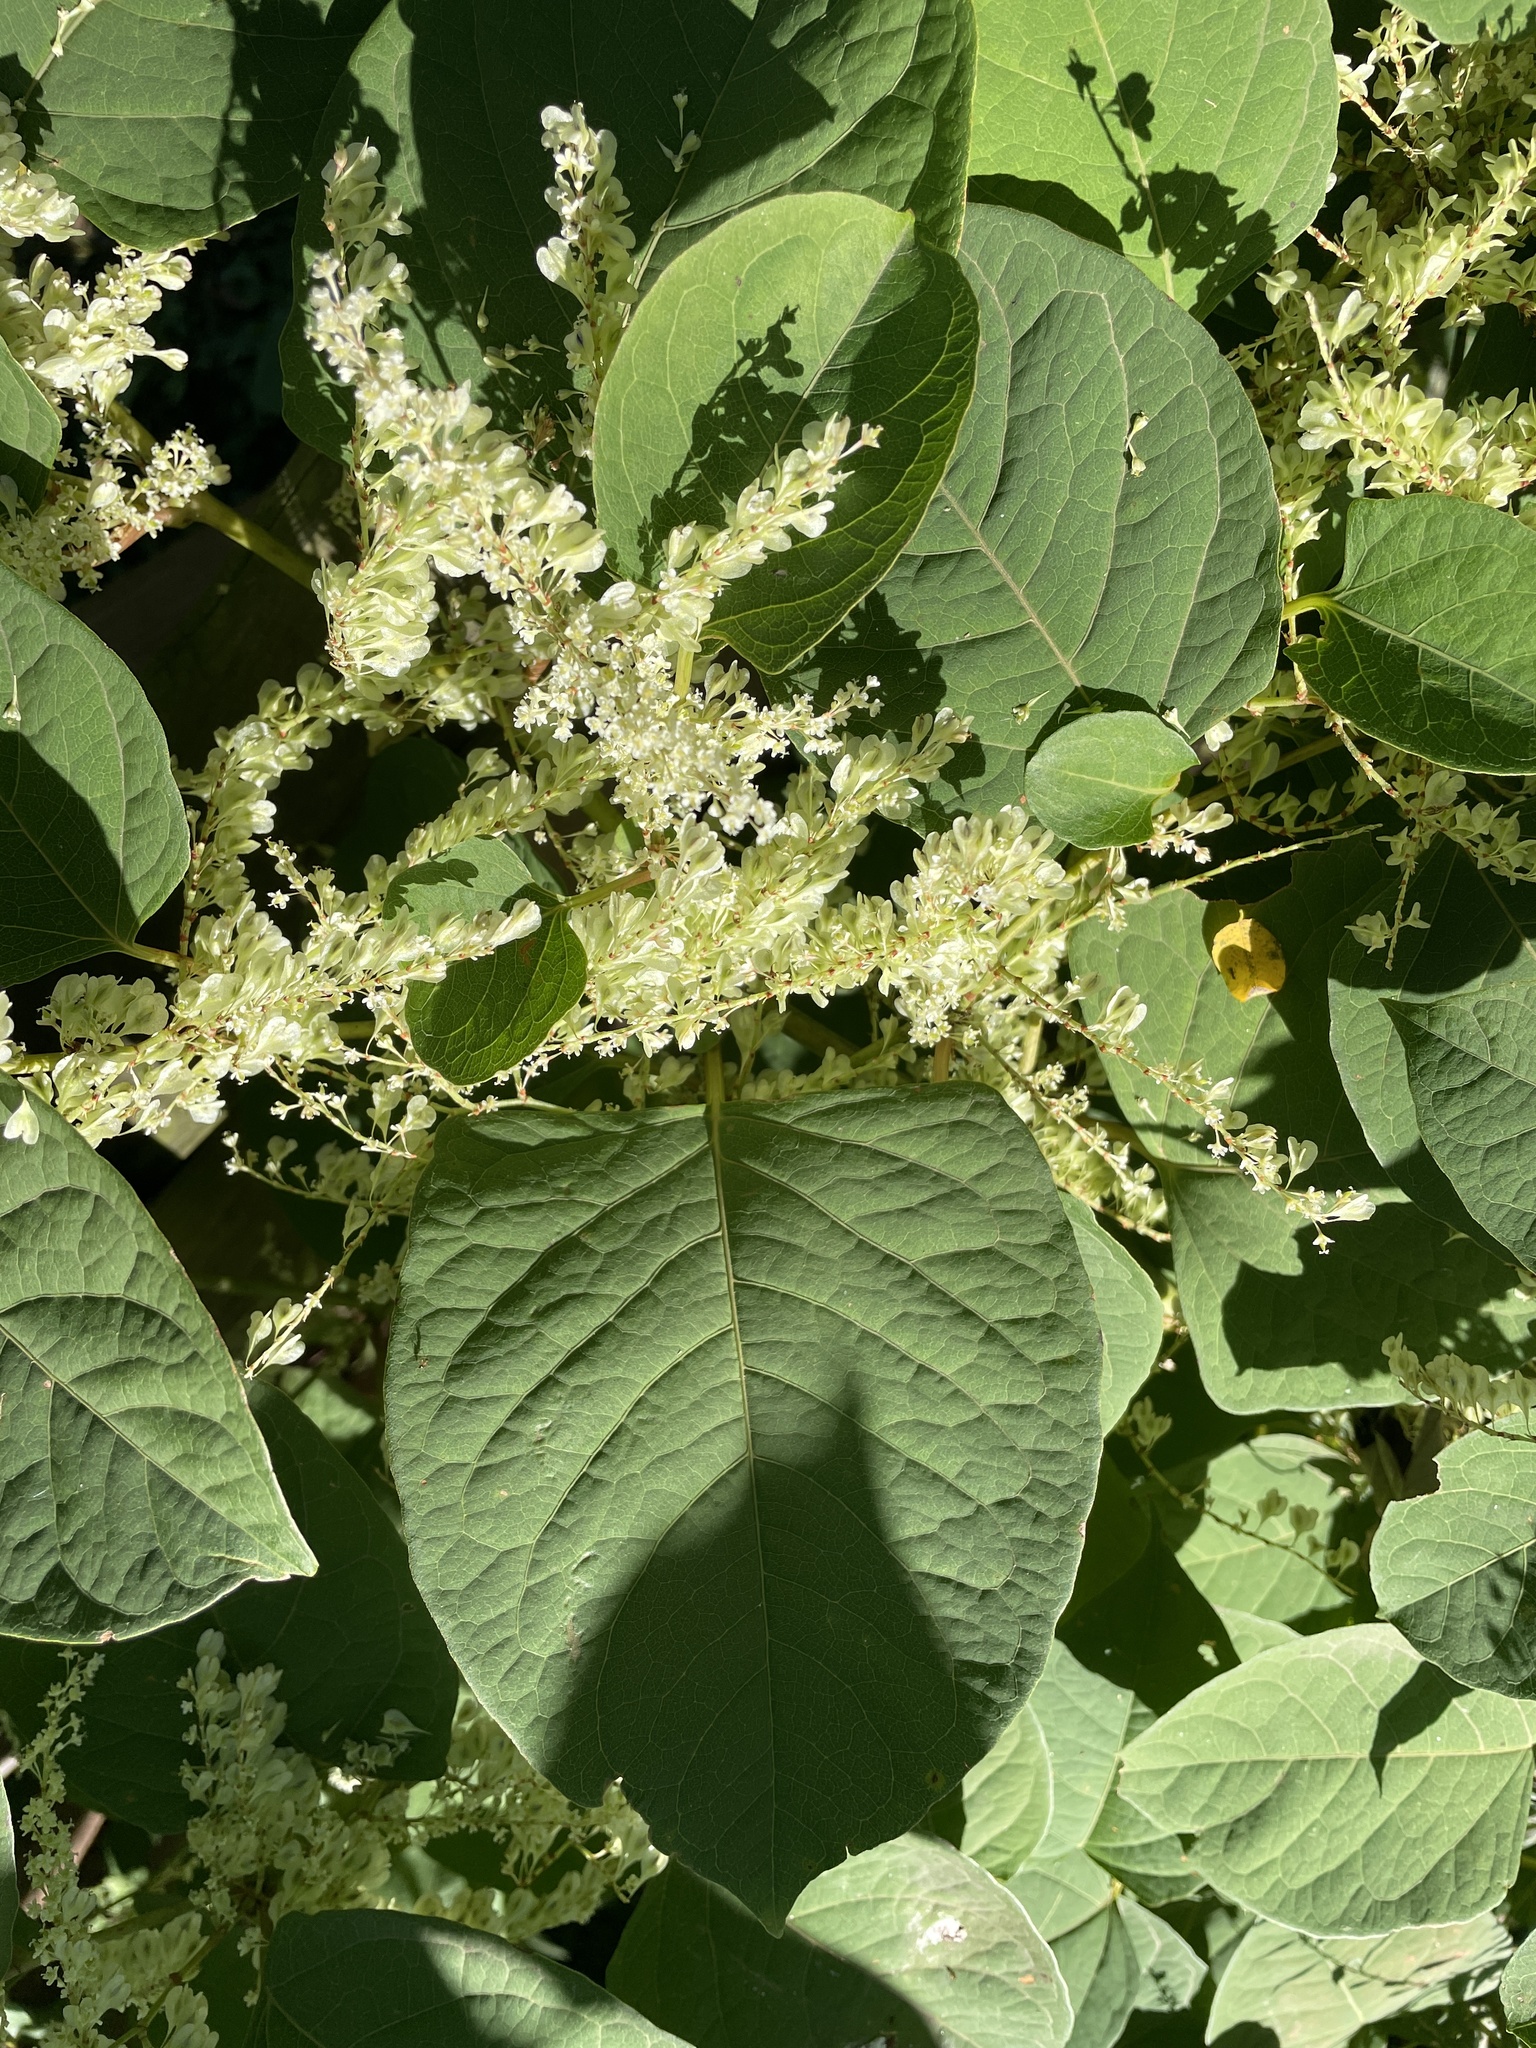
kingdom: Plantae
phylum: Tracheophyta
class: Magnoliopsida
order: Caryophyllales
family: Polygonaceae
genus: Reynoutria
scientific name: Reynoutria japonica
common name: Japanese knotweed
